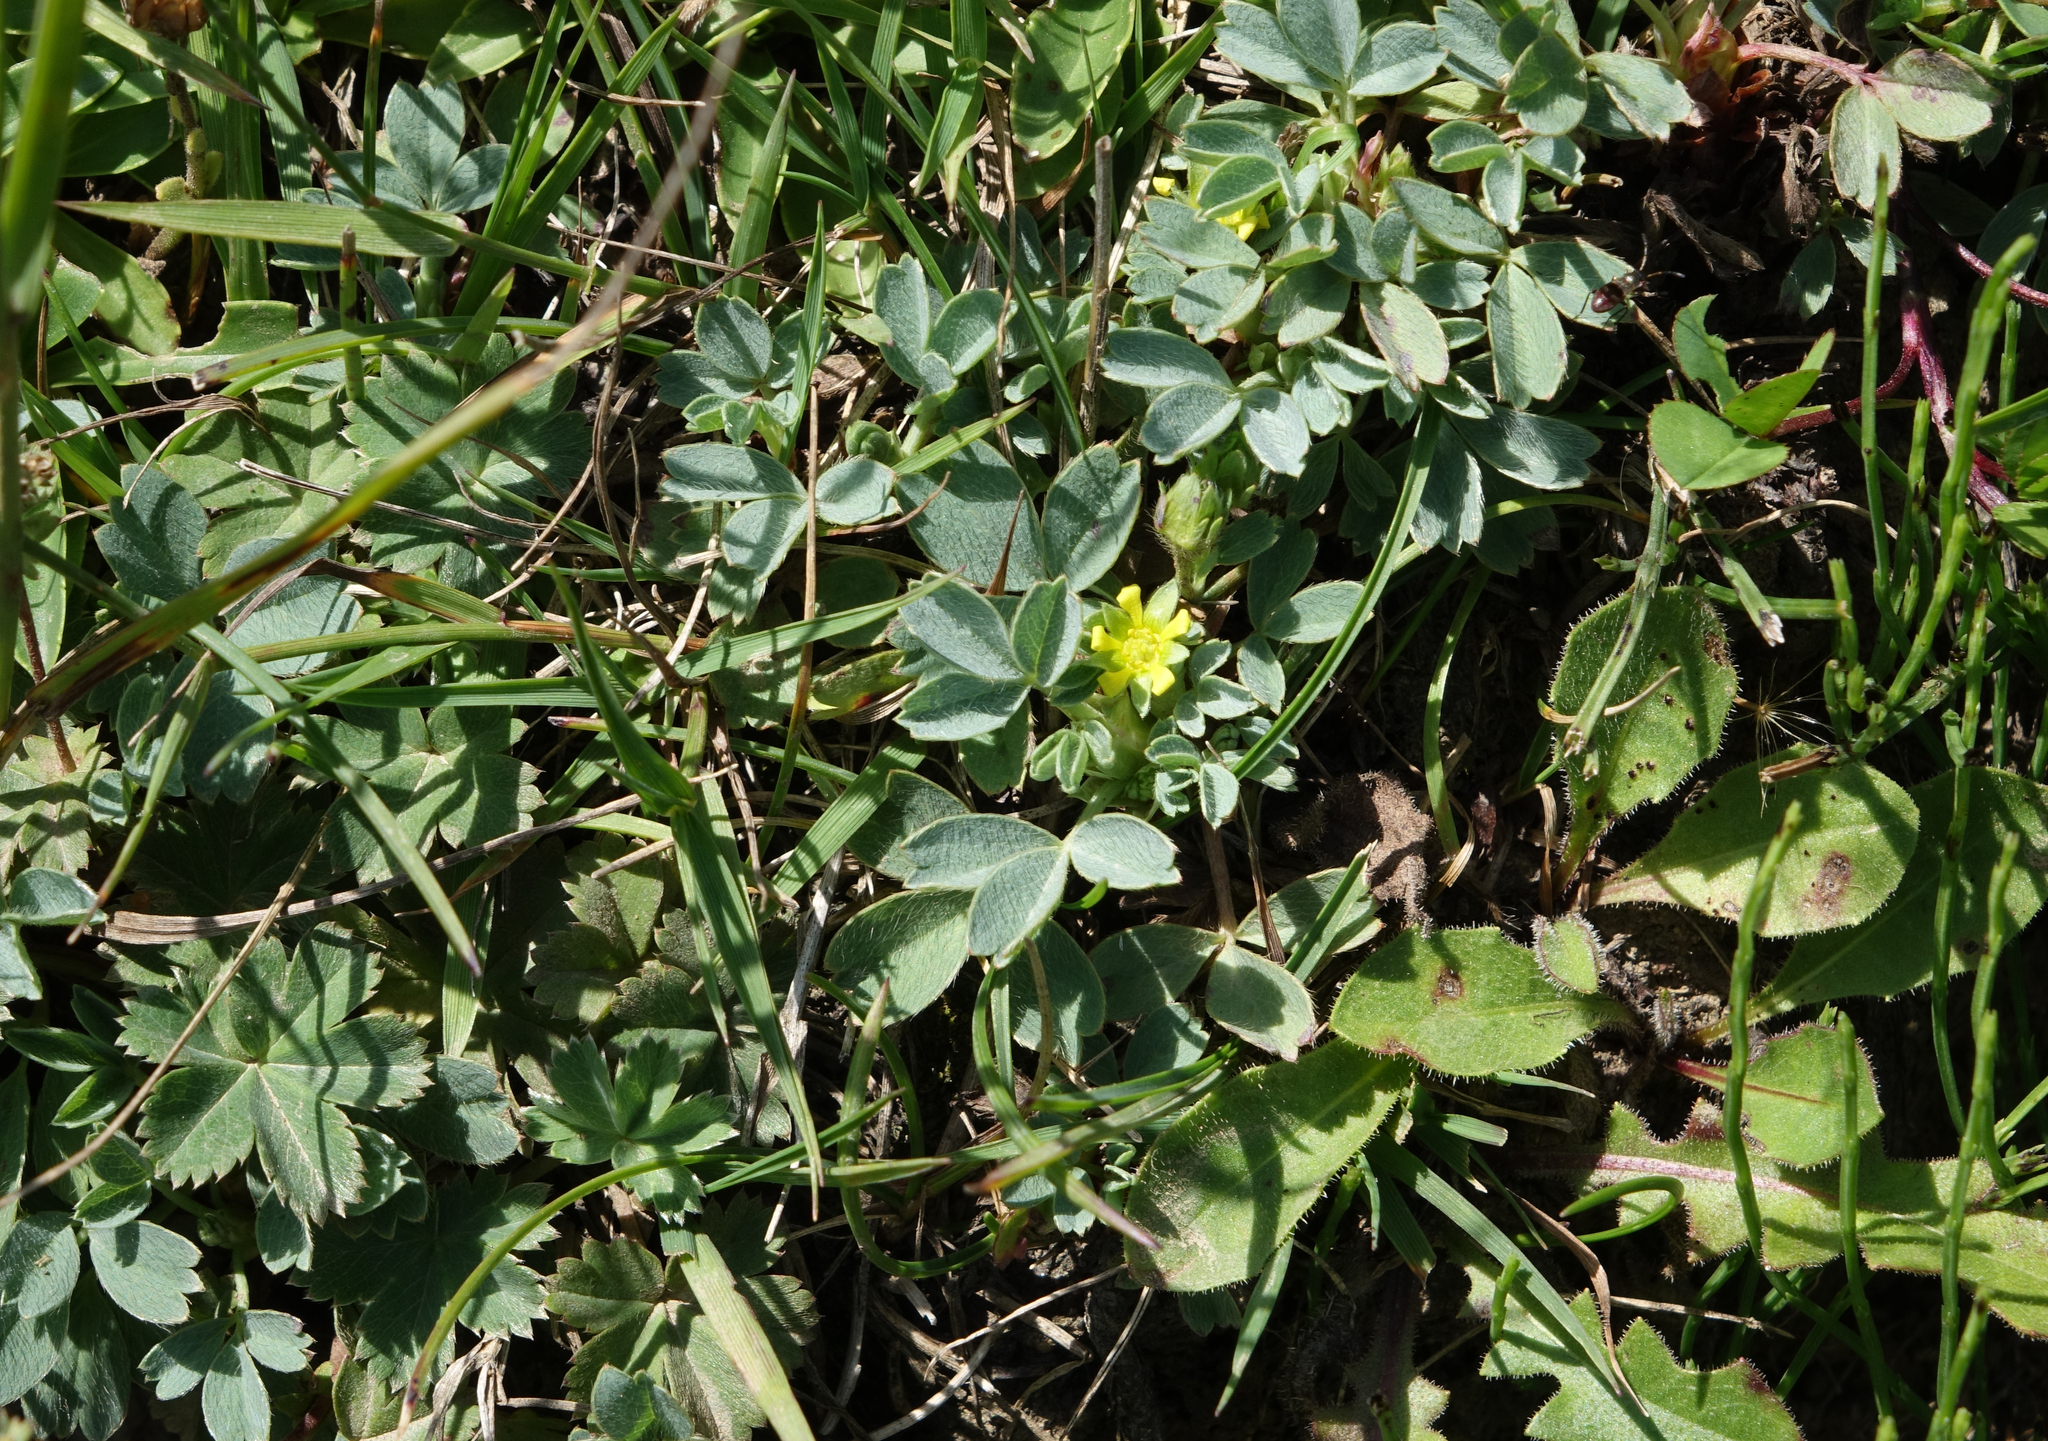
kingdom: Plantae
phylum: Tracheophyta
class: Magnoliopsida
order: Rosales
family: Rosaceae
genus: Sibbaldia
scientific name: Sibbaldia parviflora
